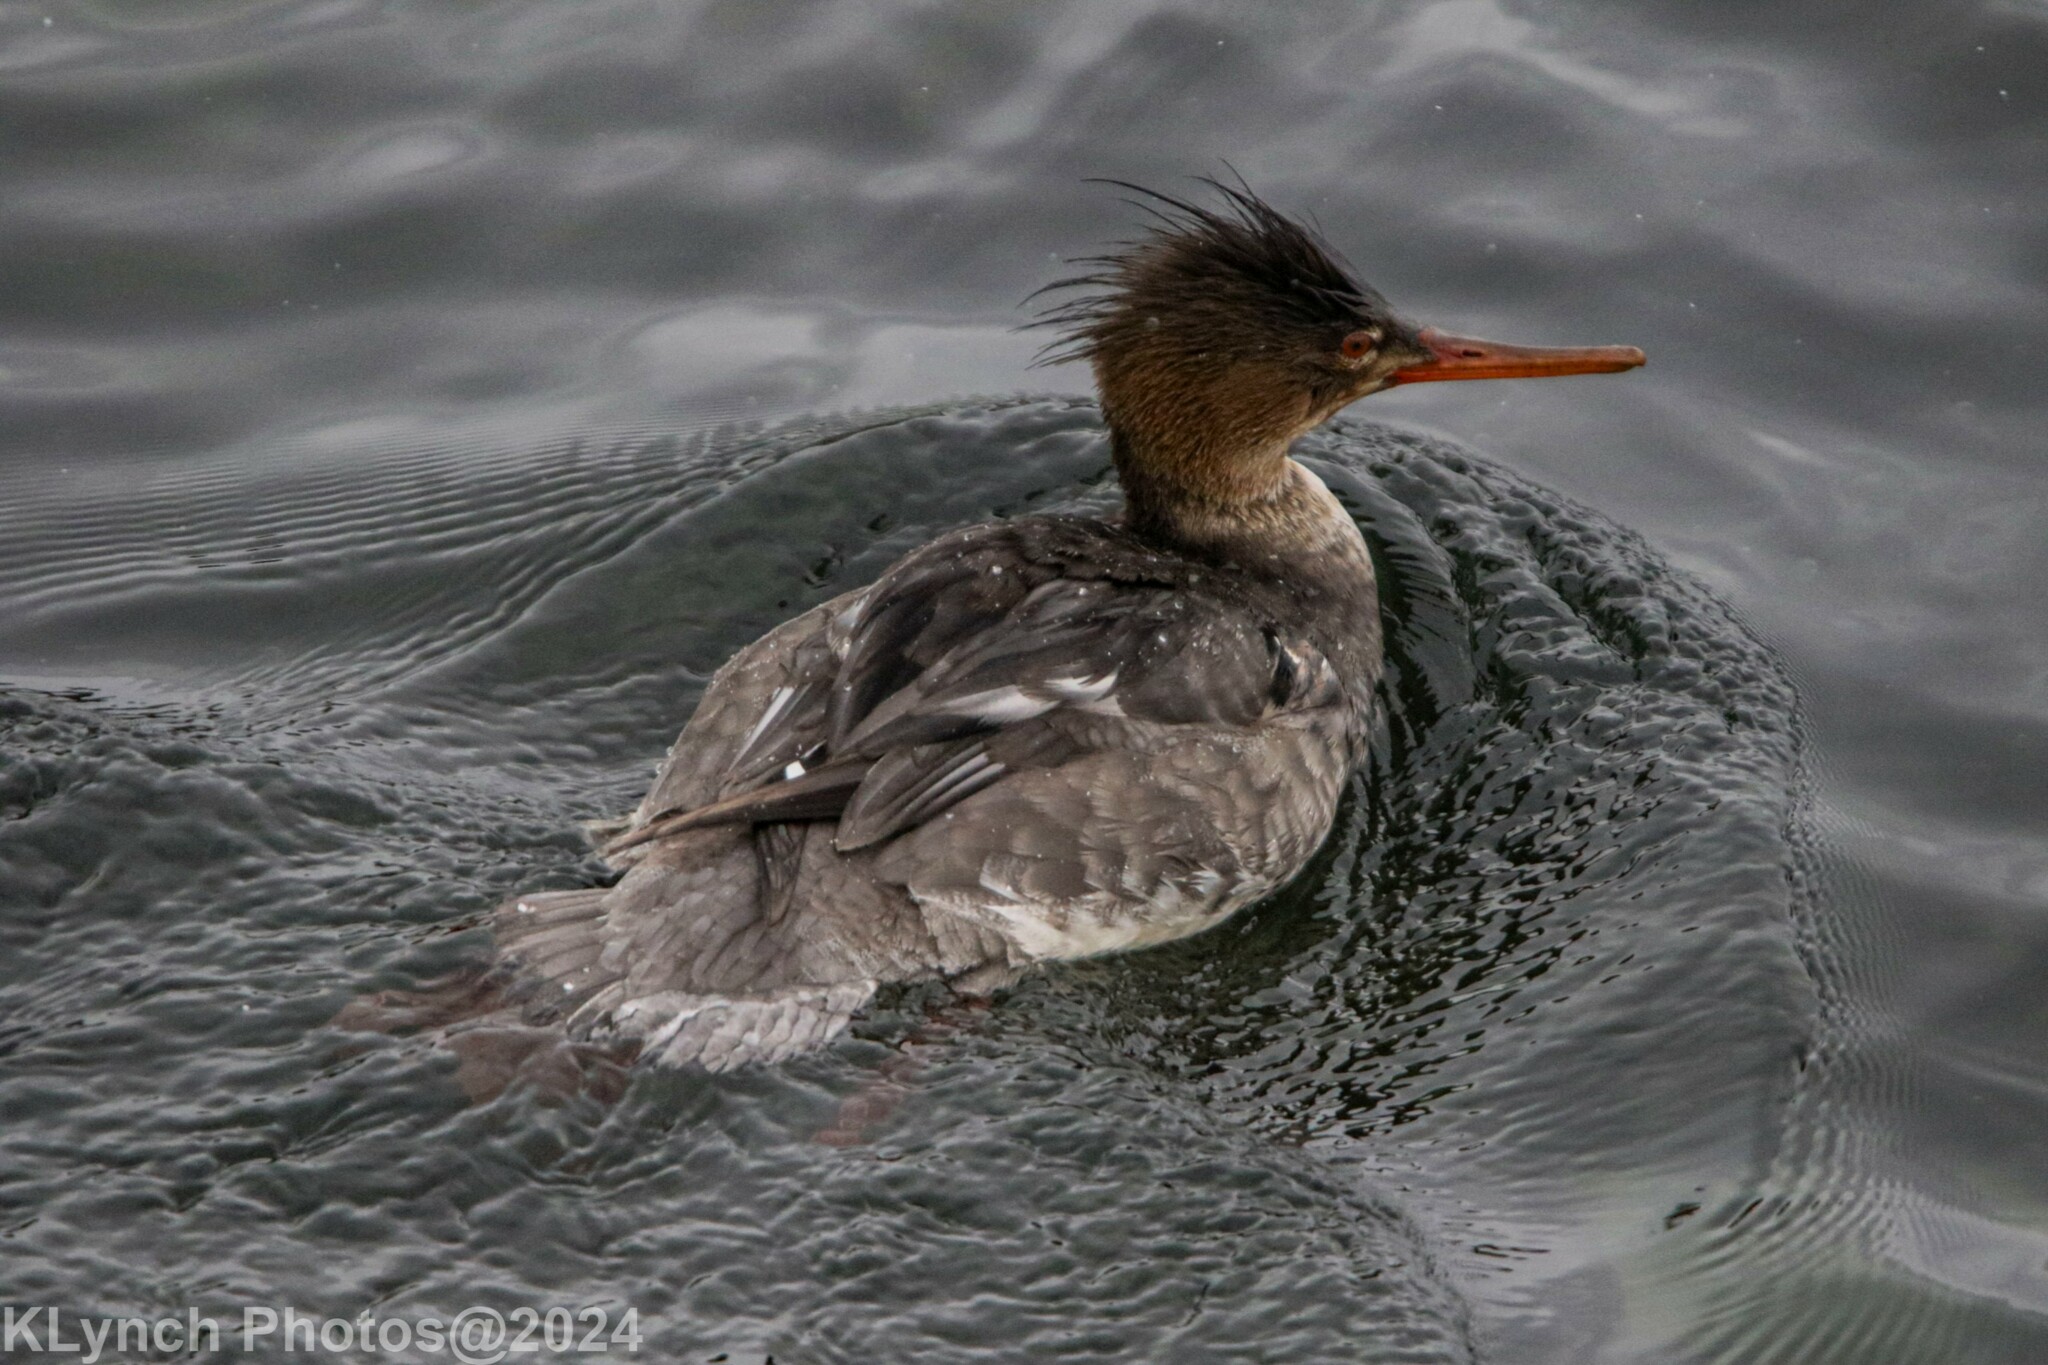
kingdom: Animalia
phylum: Chordata
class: Aves
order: Anseriformes
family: Anatidae
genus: Mergus
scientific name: Mergus serrator
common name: Red-breasted merganser
